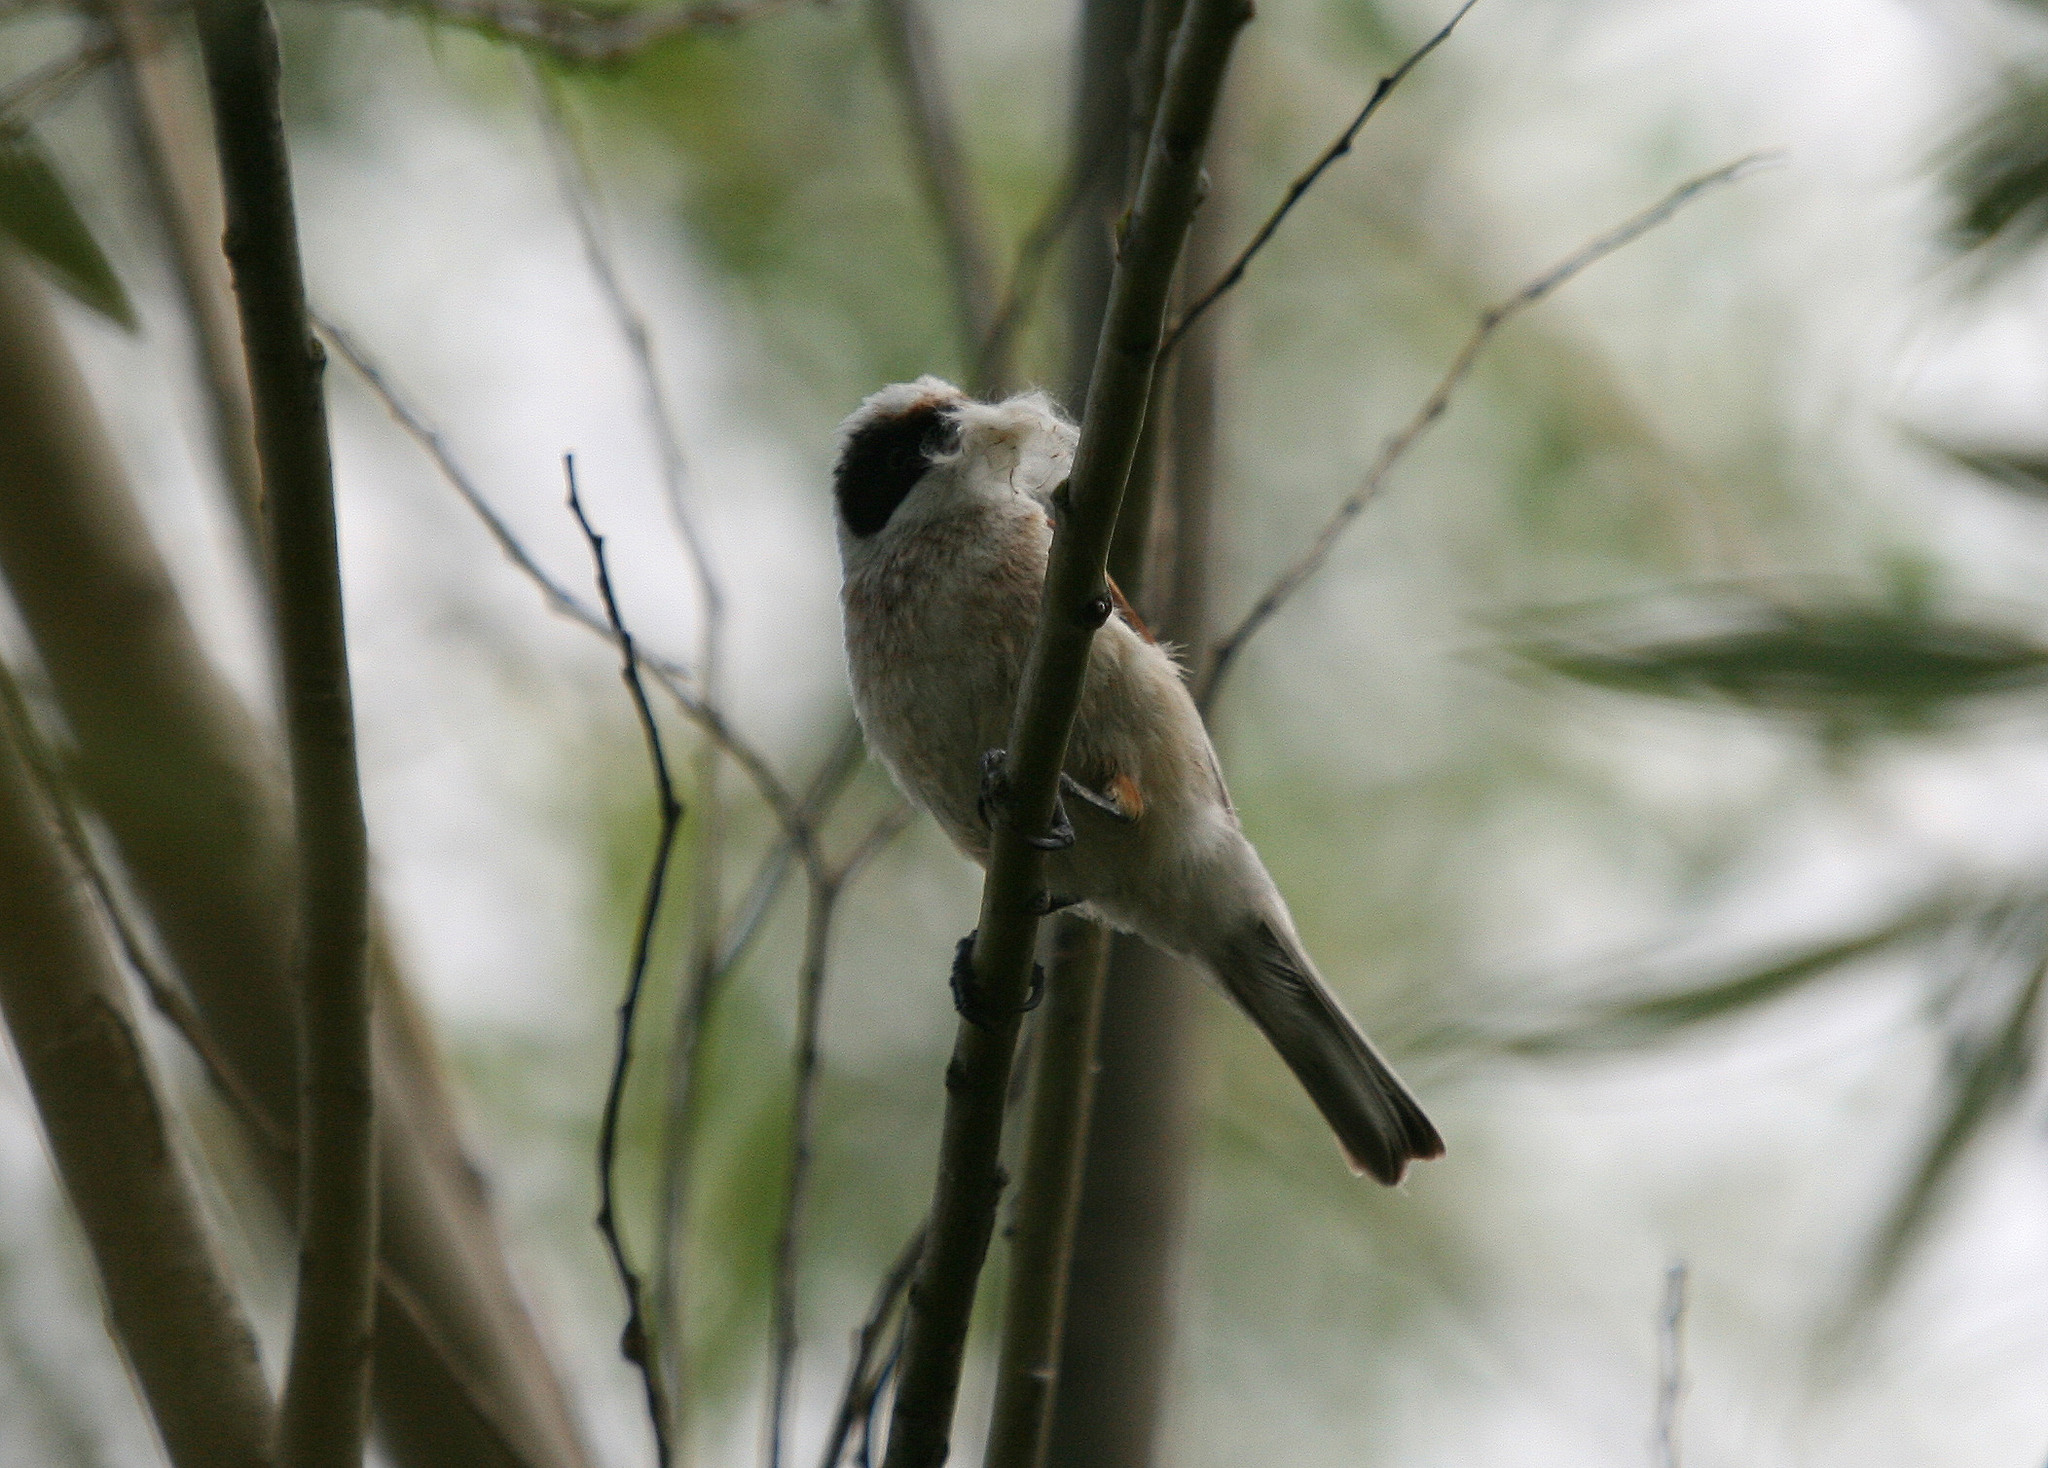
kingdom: Animalia
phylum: Chordata
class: Aves
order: Passeriformes
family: Remizidae
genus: Remiz
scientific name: Remiz pendulinus
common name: Eurasian penduline tit
